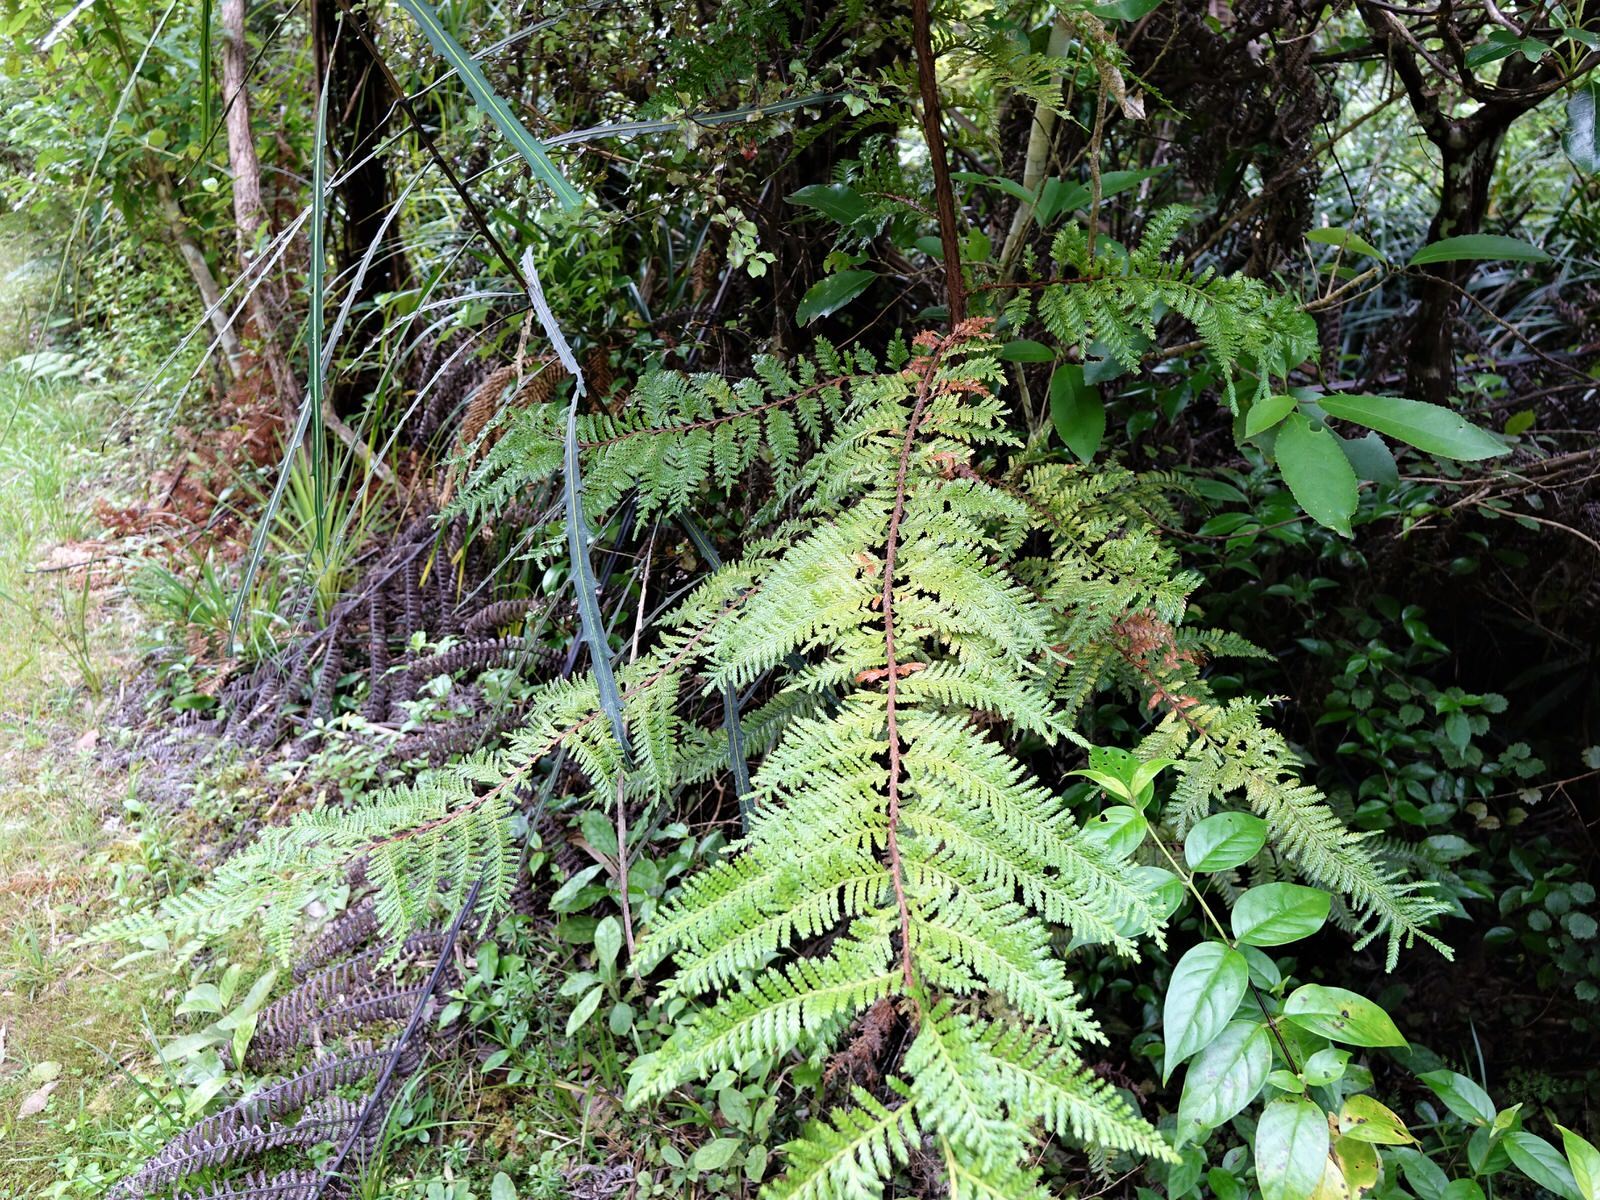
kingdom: Plantae
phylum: Tracheophyta
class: Pinopsida
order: Pinales
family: Cupressaceae
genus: Libocedrus
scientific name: Libocedrus plumosa
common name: New zealand cedar
